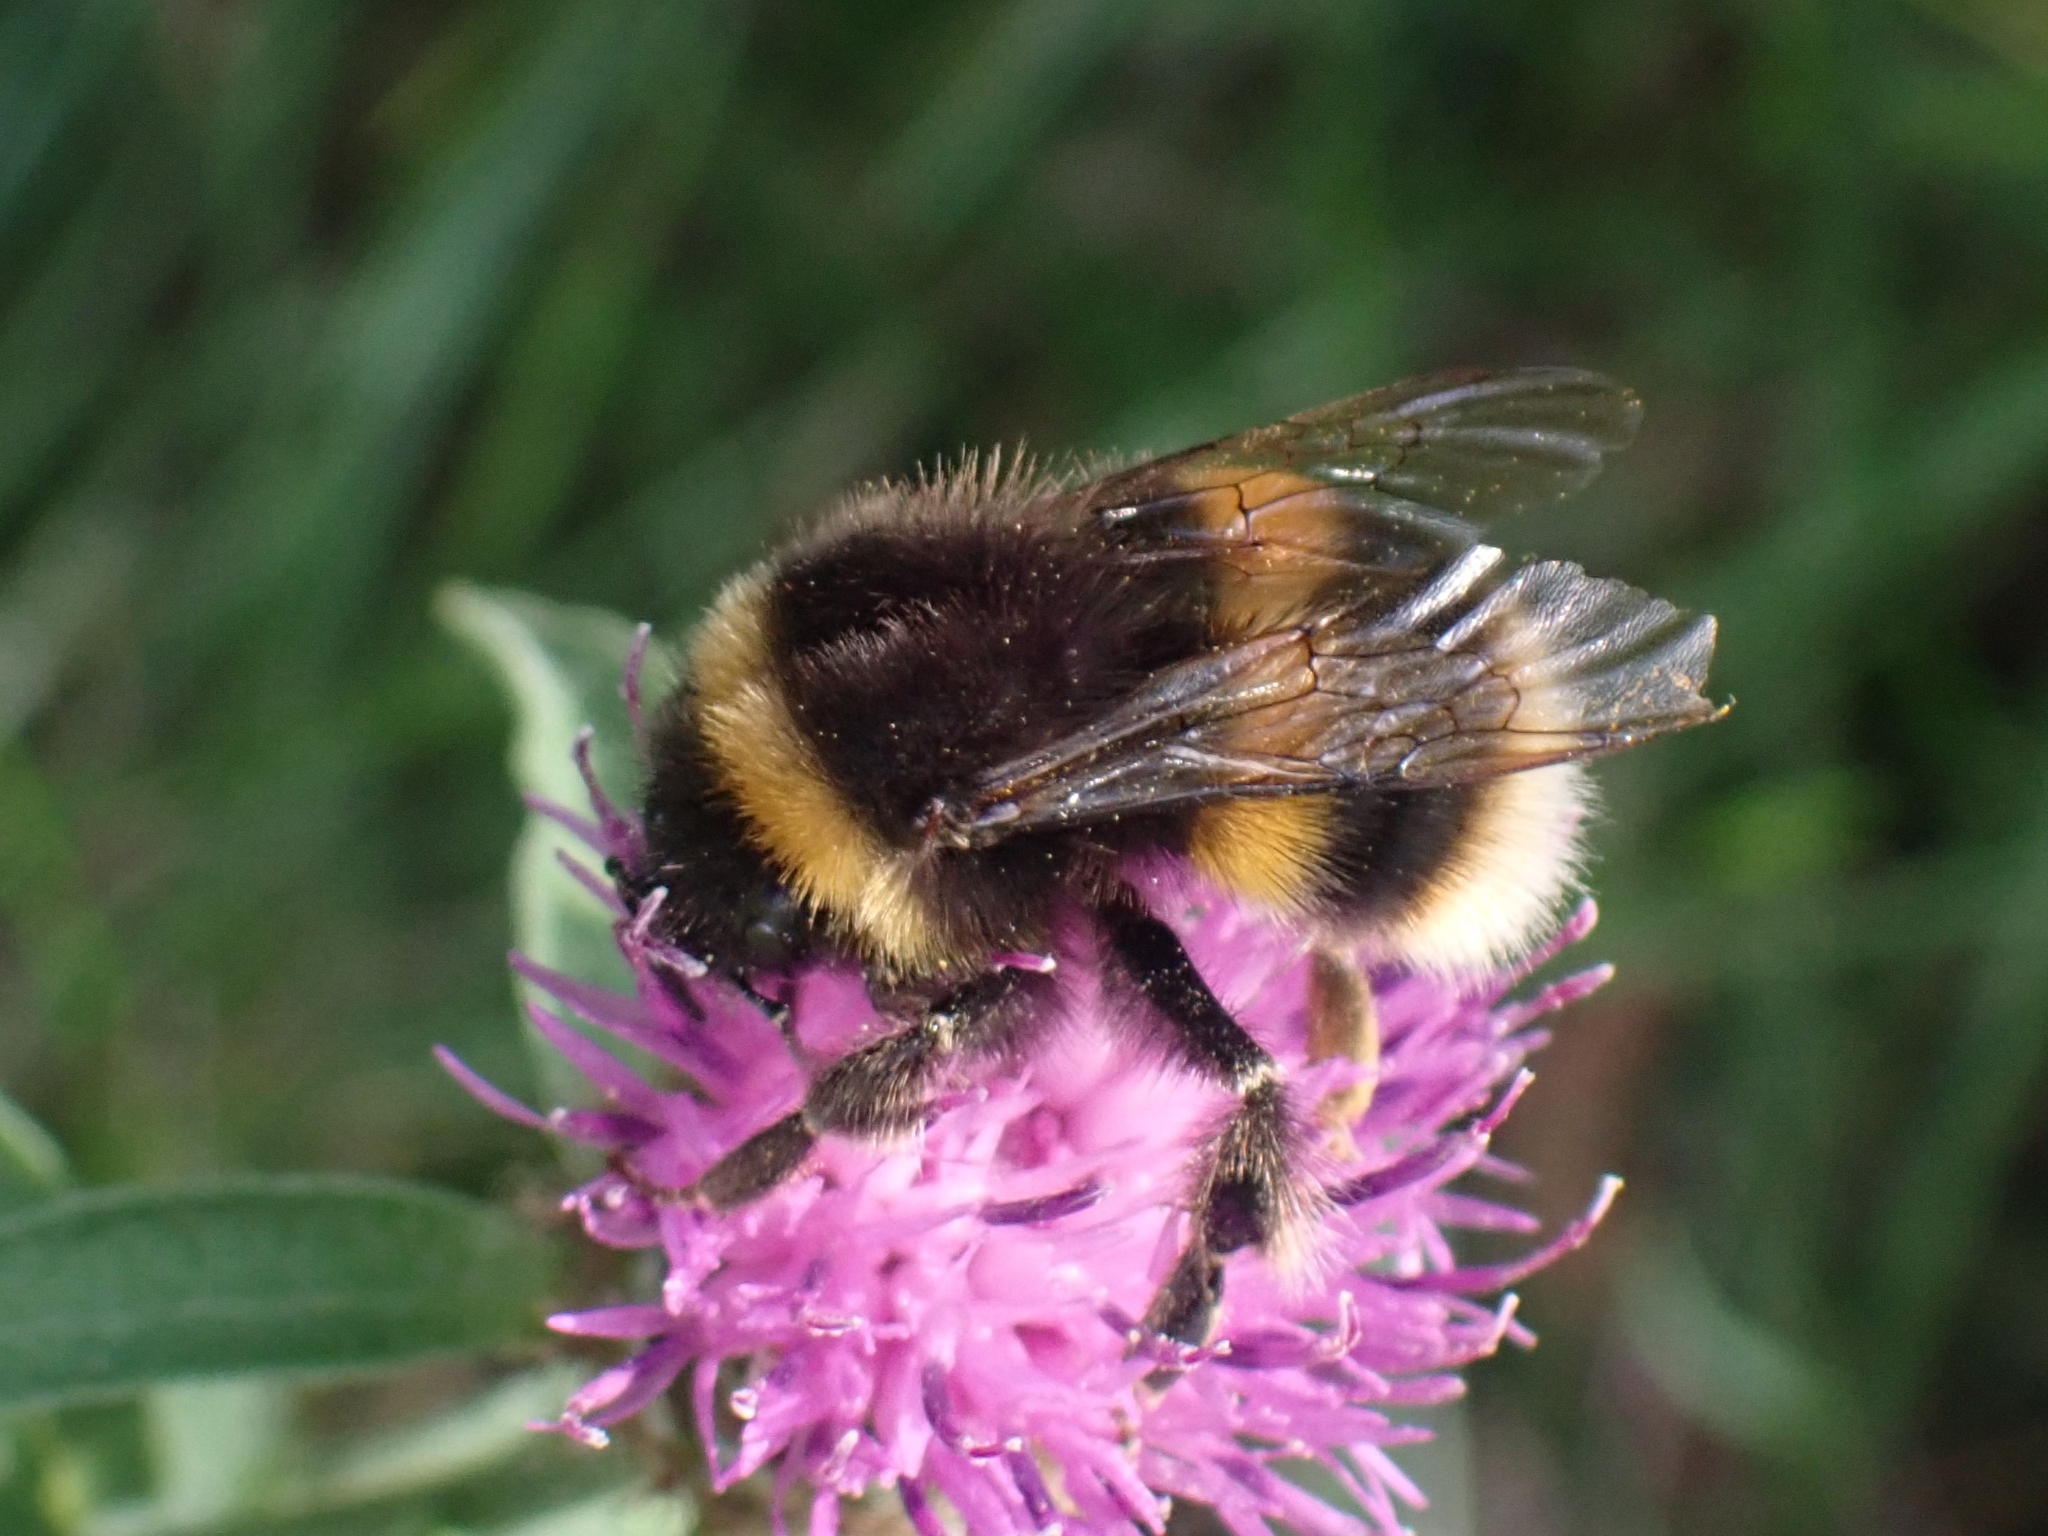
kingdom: Animalia
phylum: Arthropoda
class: Insecta
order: Hymenoptera
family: Apidae
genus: Bombus
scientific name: Bombus terrestris
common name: Buff-tailed bumblebee
